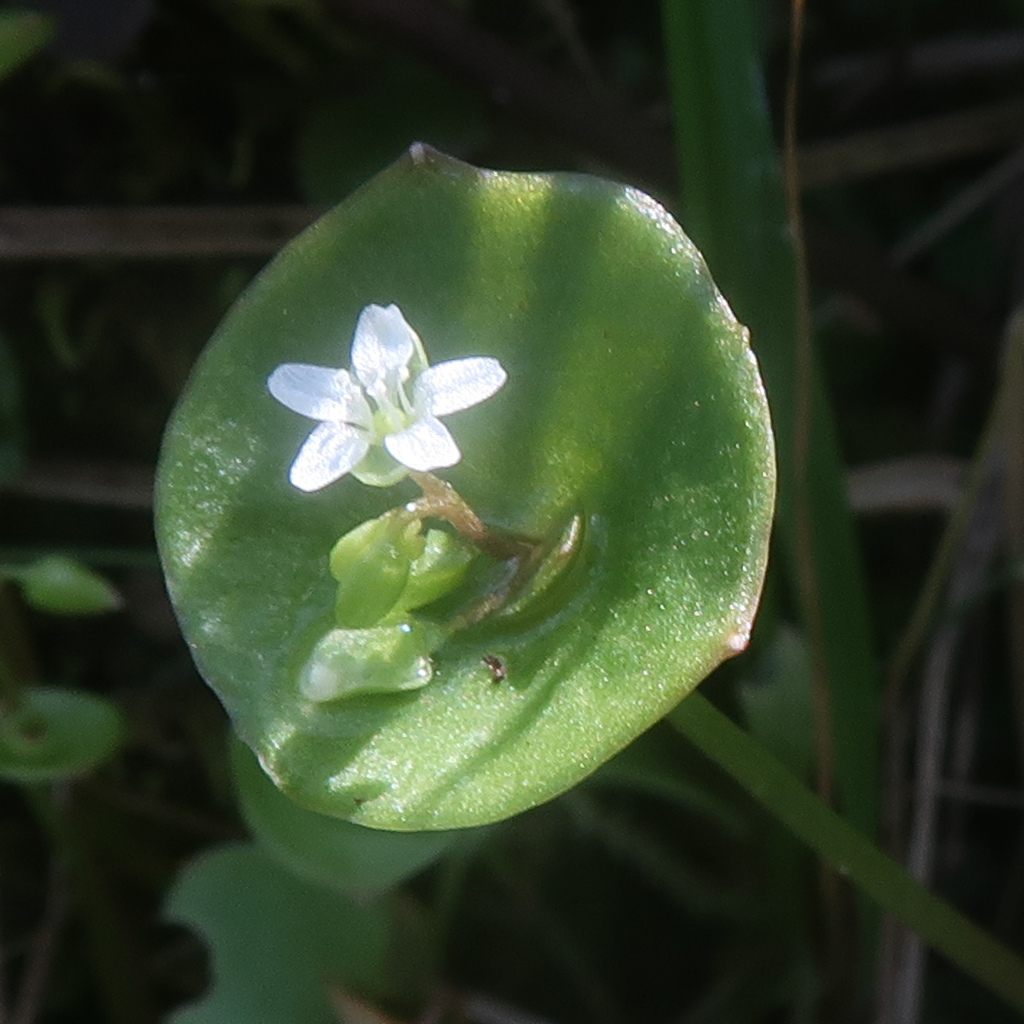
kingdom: Plantae
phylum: Tracheophyta
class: Magnoliopsida
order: Caryophyllales
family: Montiaceae
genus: Claytonia
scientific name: Claytonia perfoliata
